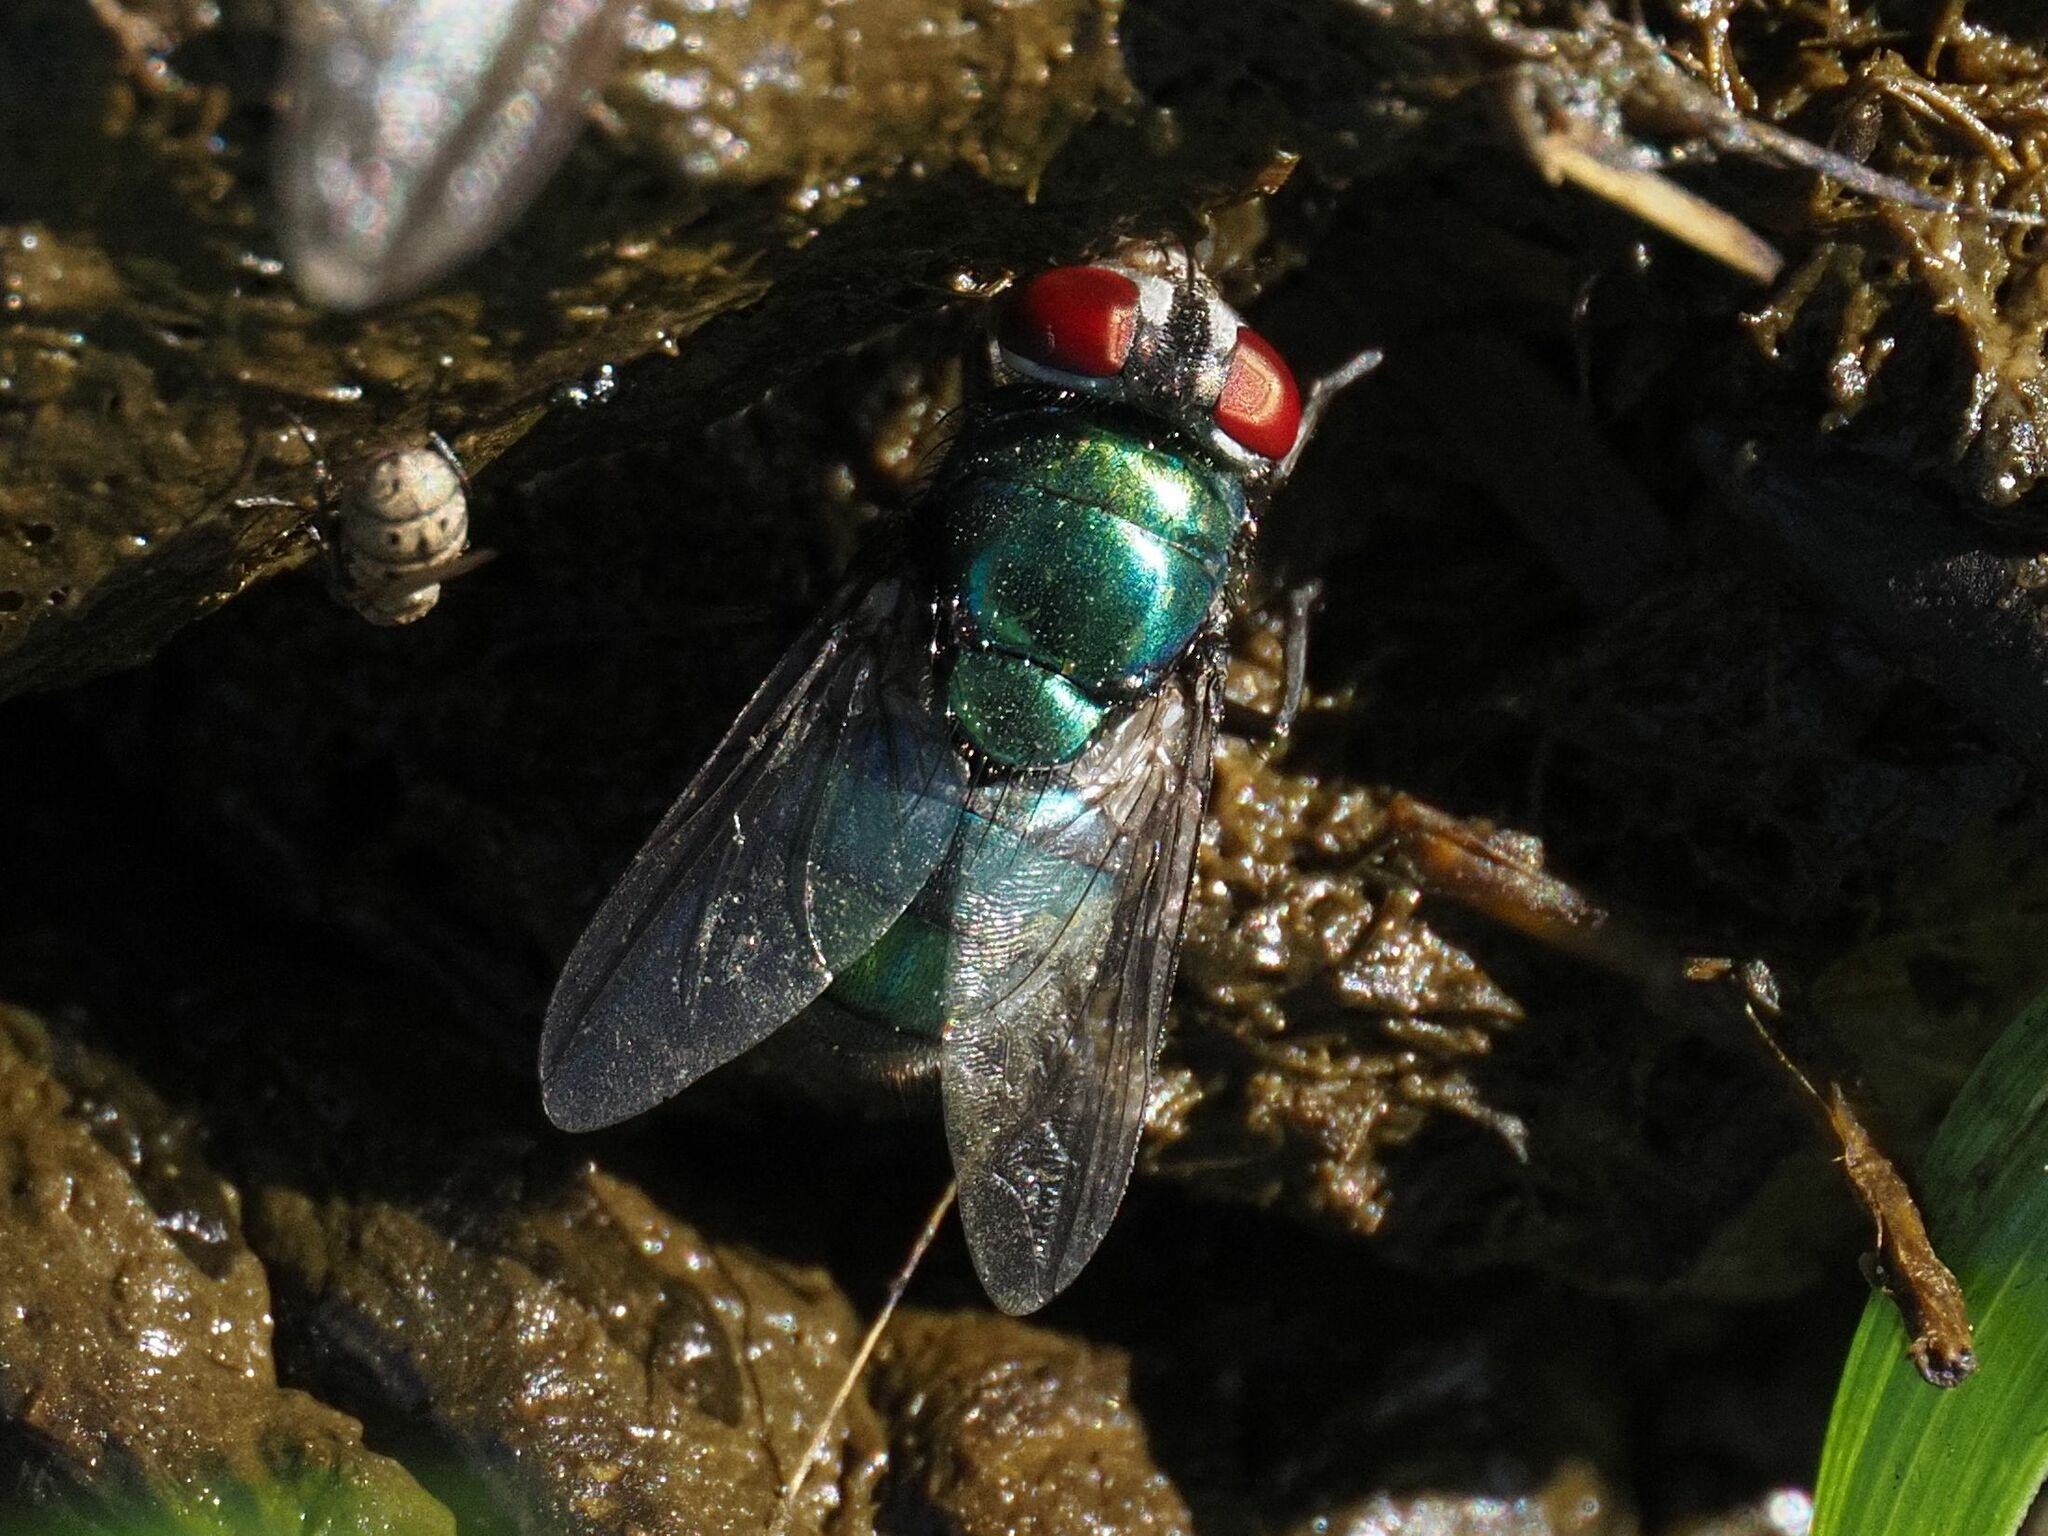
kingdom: Animalia
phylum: Arthropoda
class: Insecta
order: Diptera
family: Calliphoridae
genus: Chrysomya
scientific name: Chrysomya albiceps
